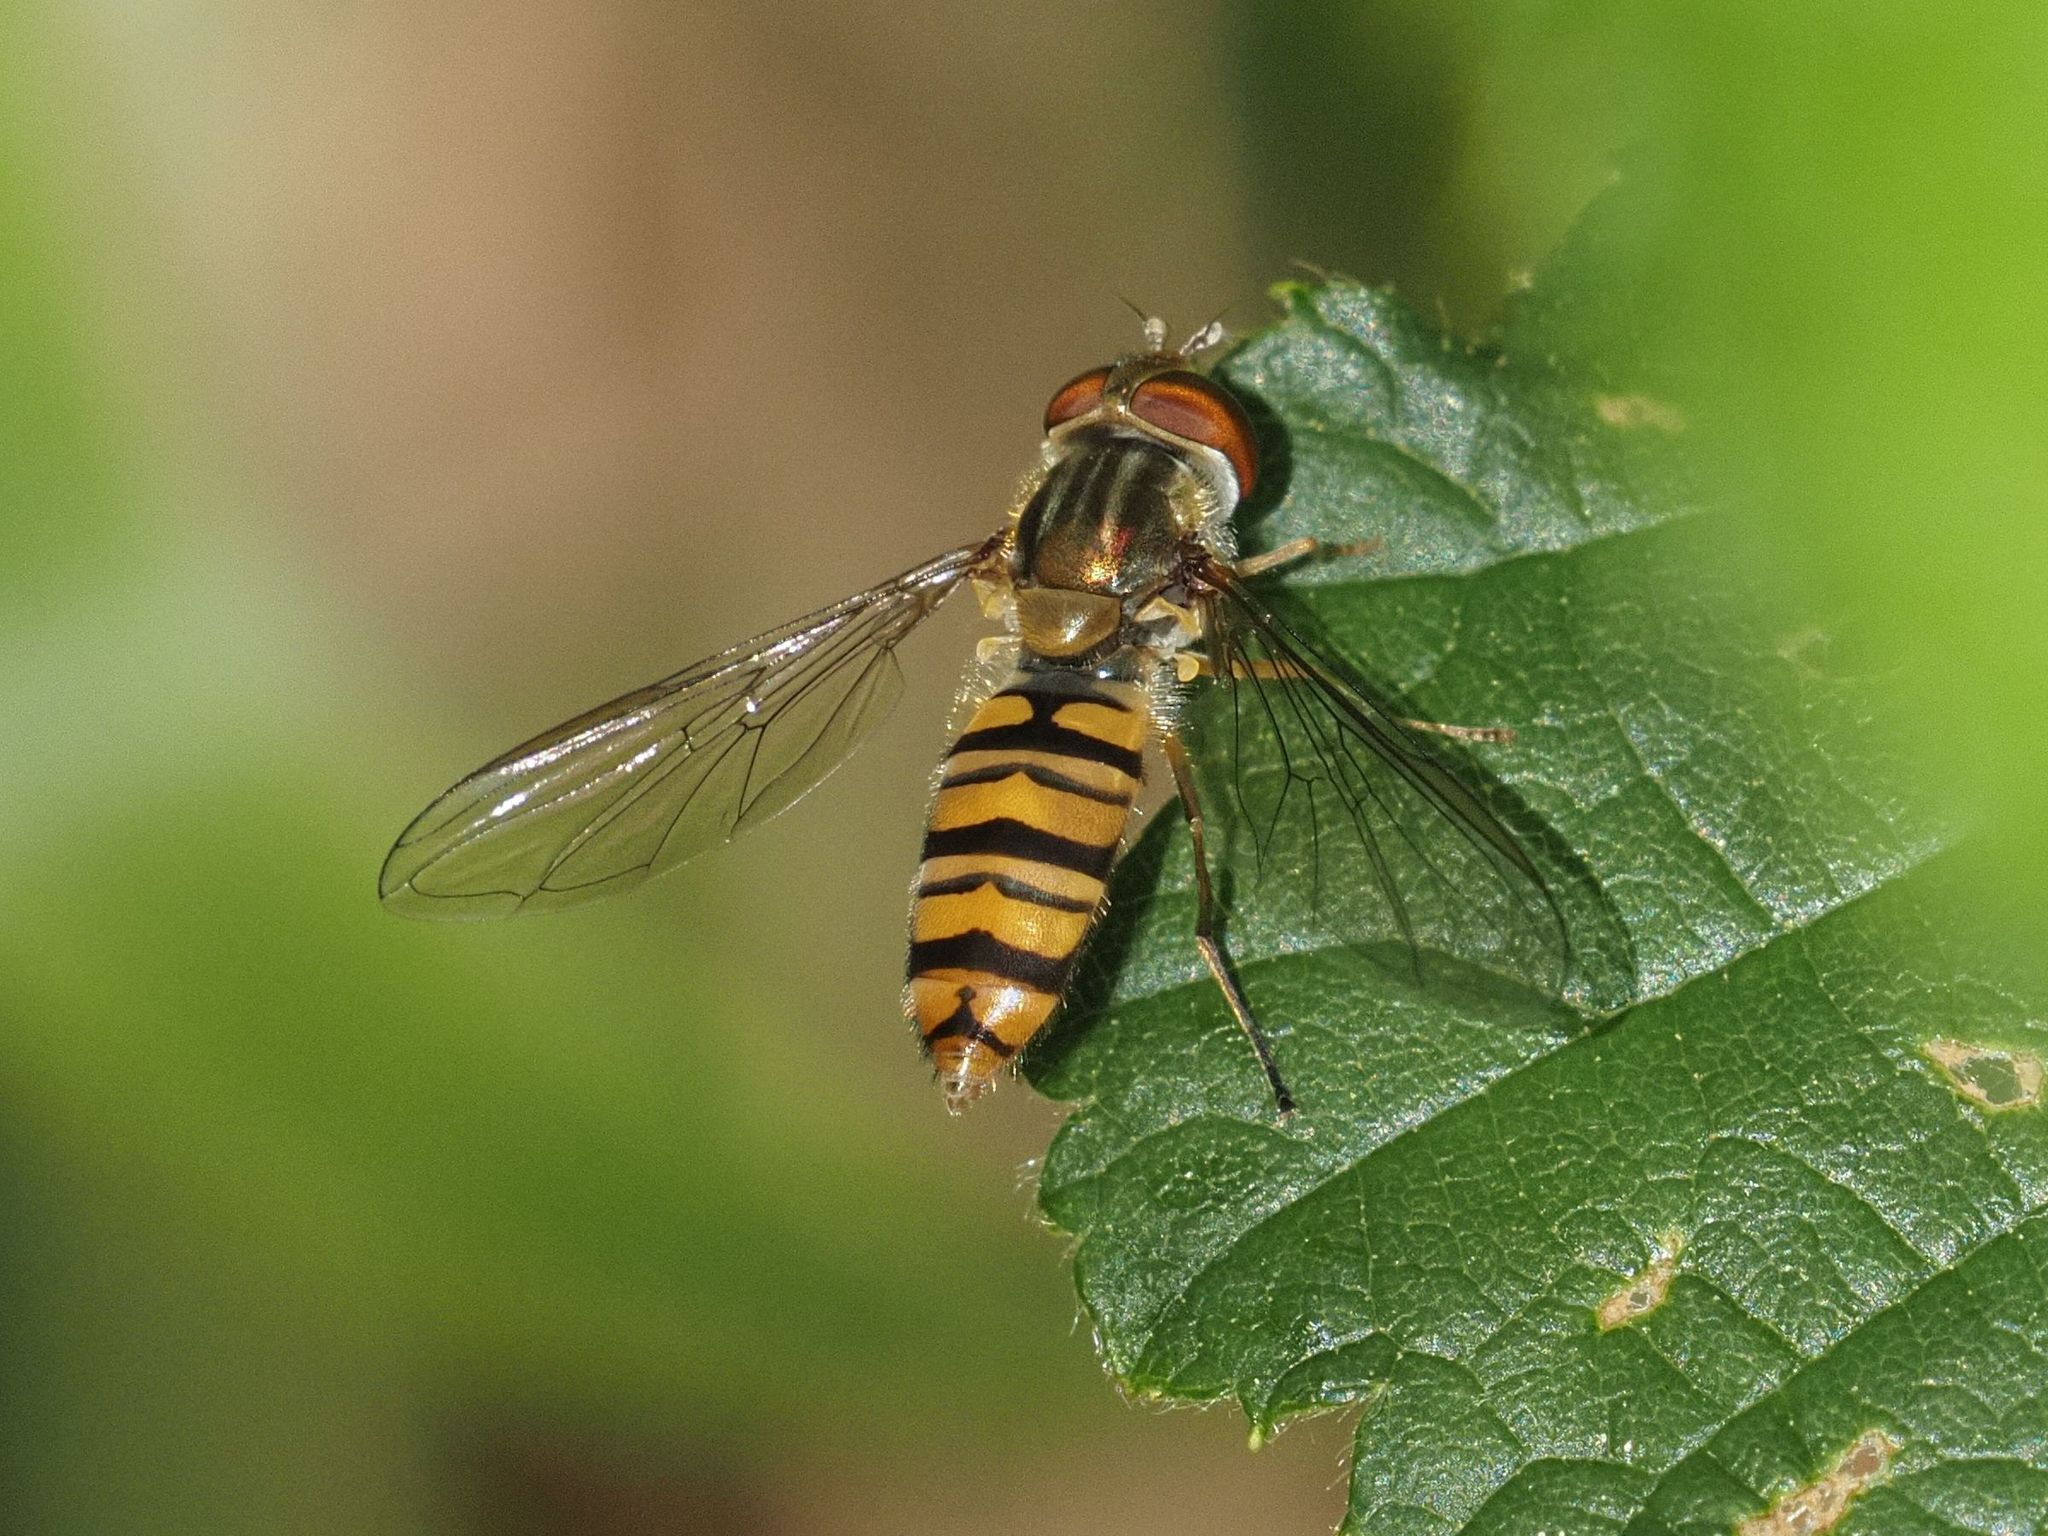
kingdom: Animalia
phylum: Arthropoda
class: Insecta
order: Diptera
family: Syrphidae
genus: Episyrphus
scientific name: Episyrphus balteatus
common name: Marmalade hoverfly
